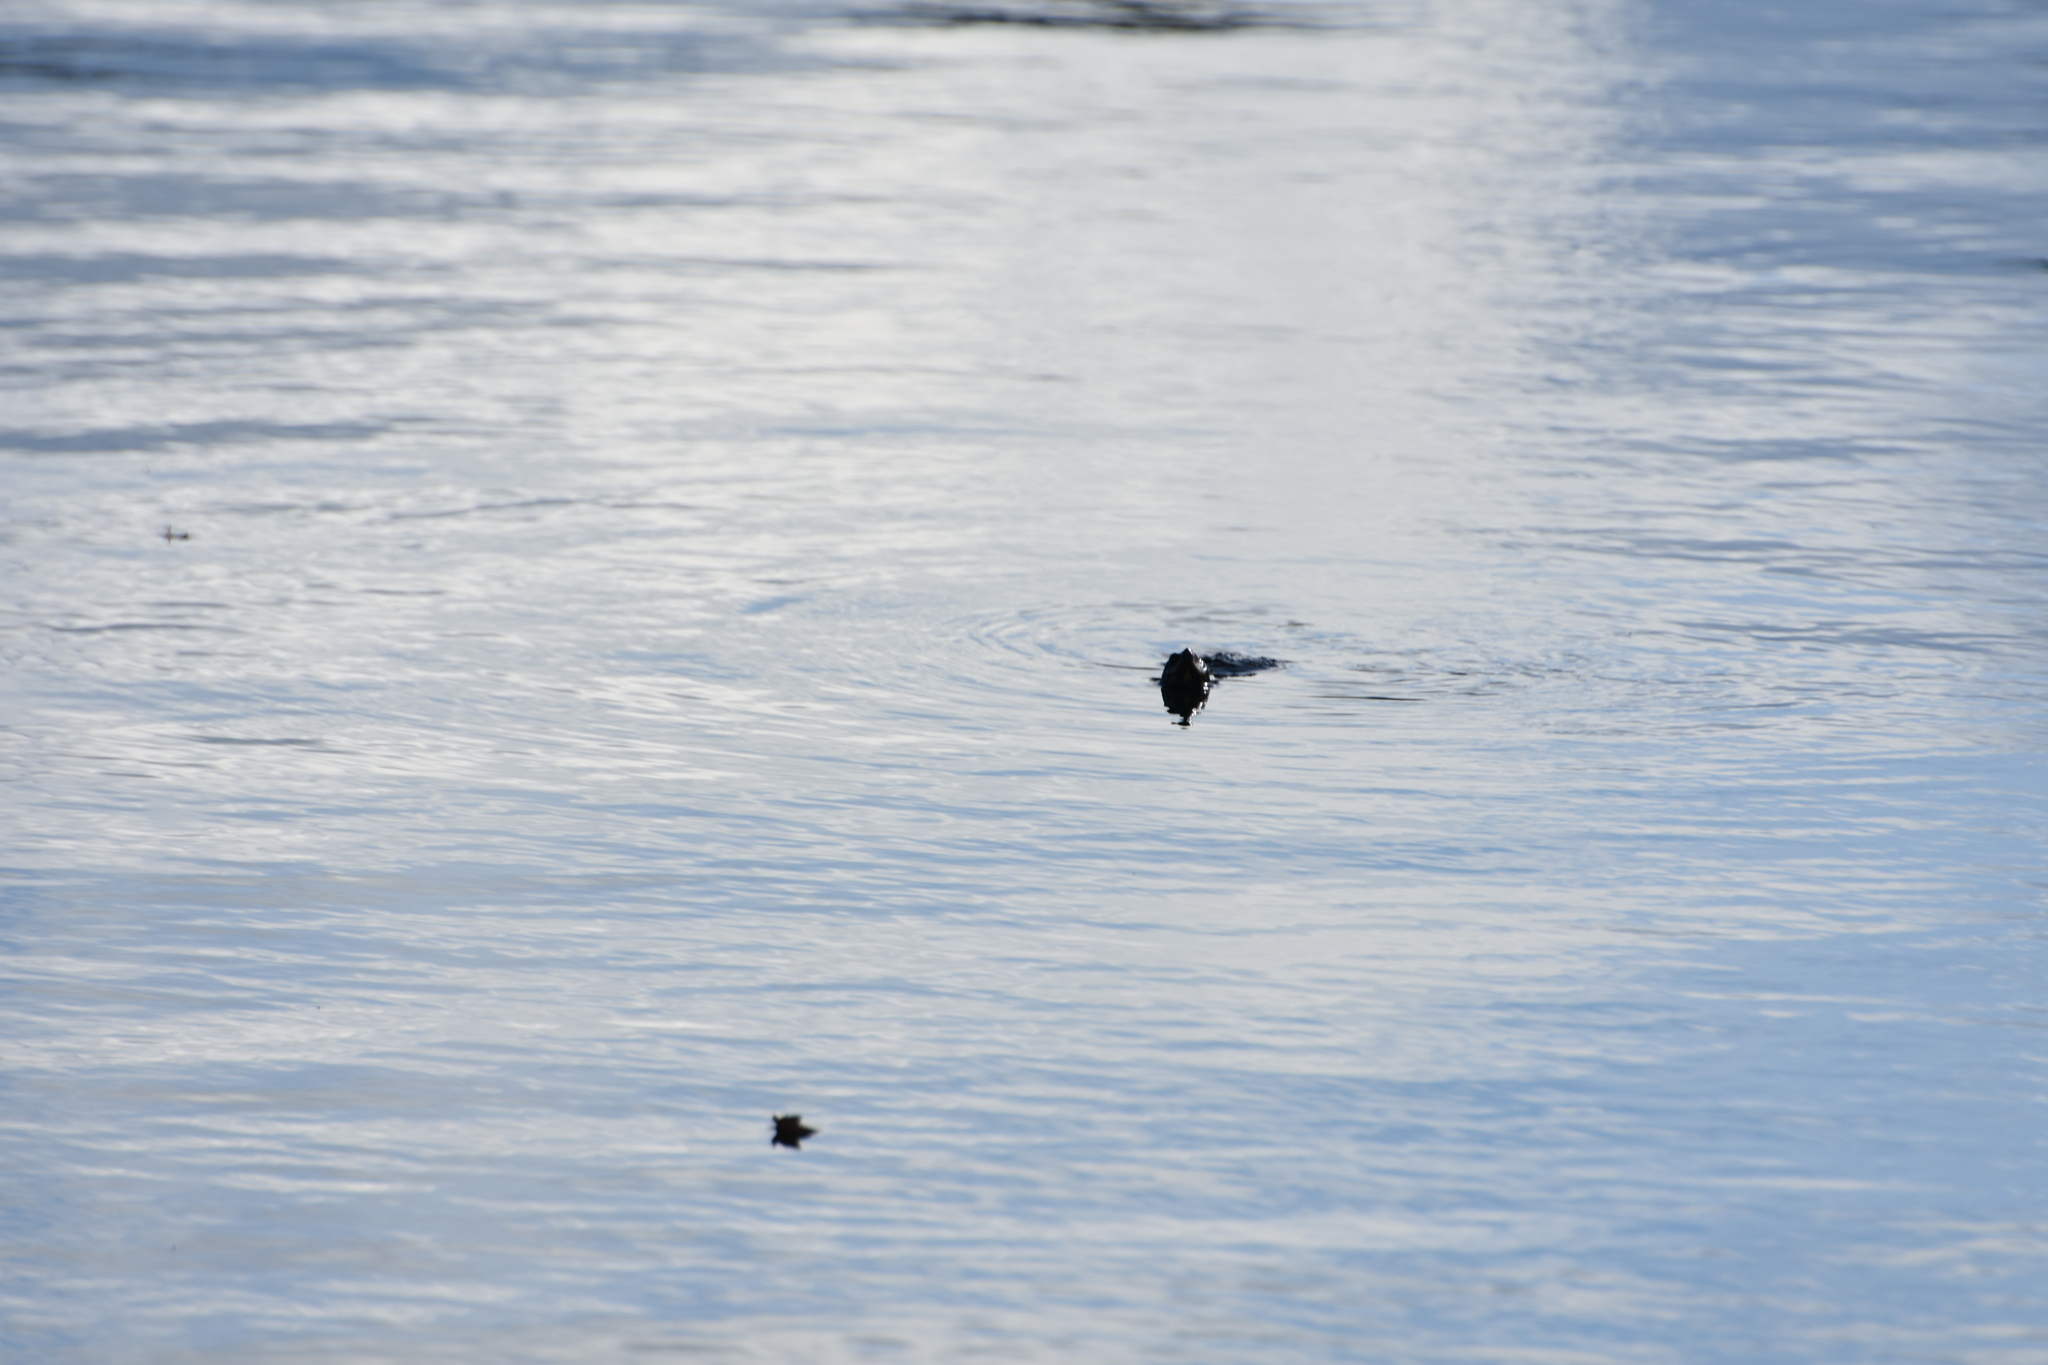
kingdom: Animalia
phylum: Chordata
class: Testudines
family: Emydidae
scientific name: Emydidae
